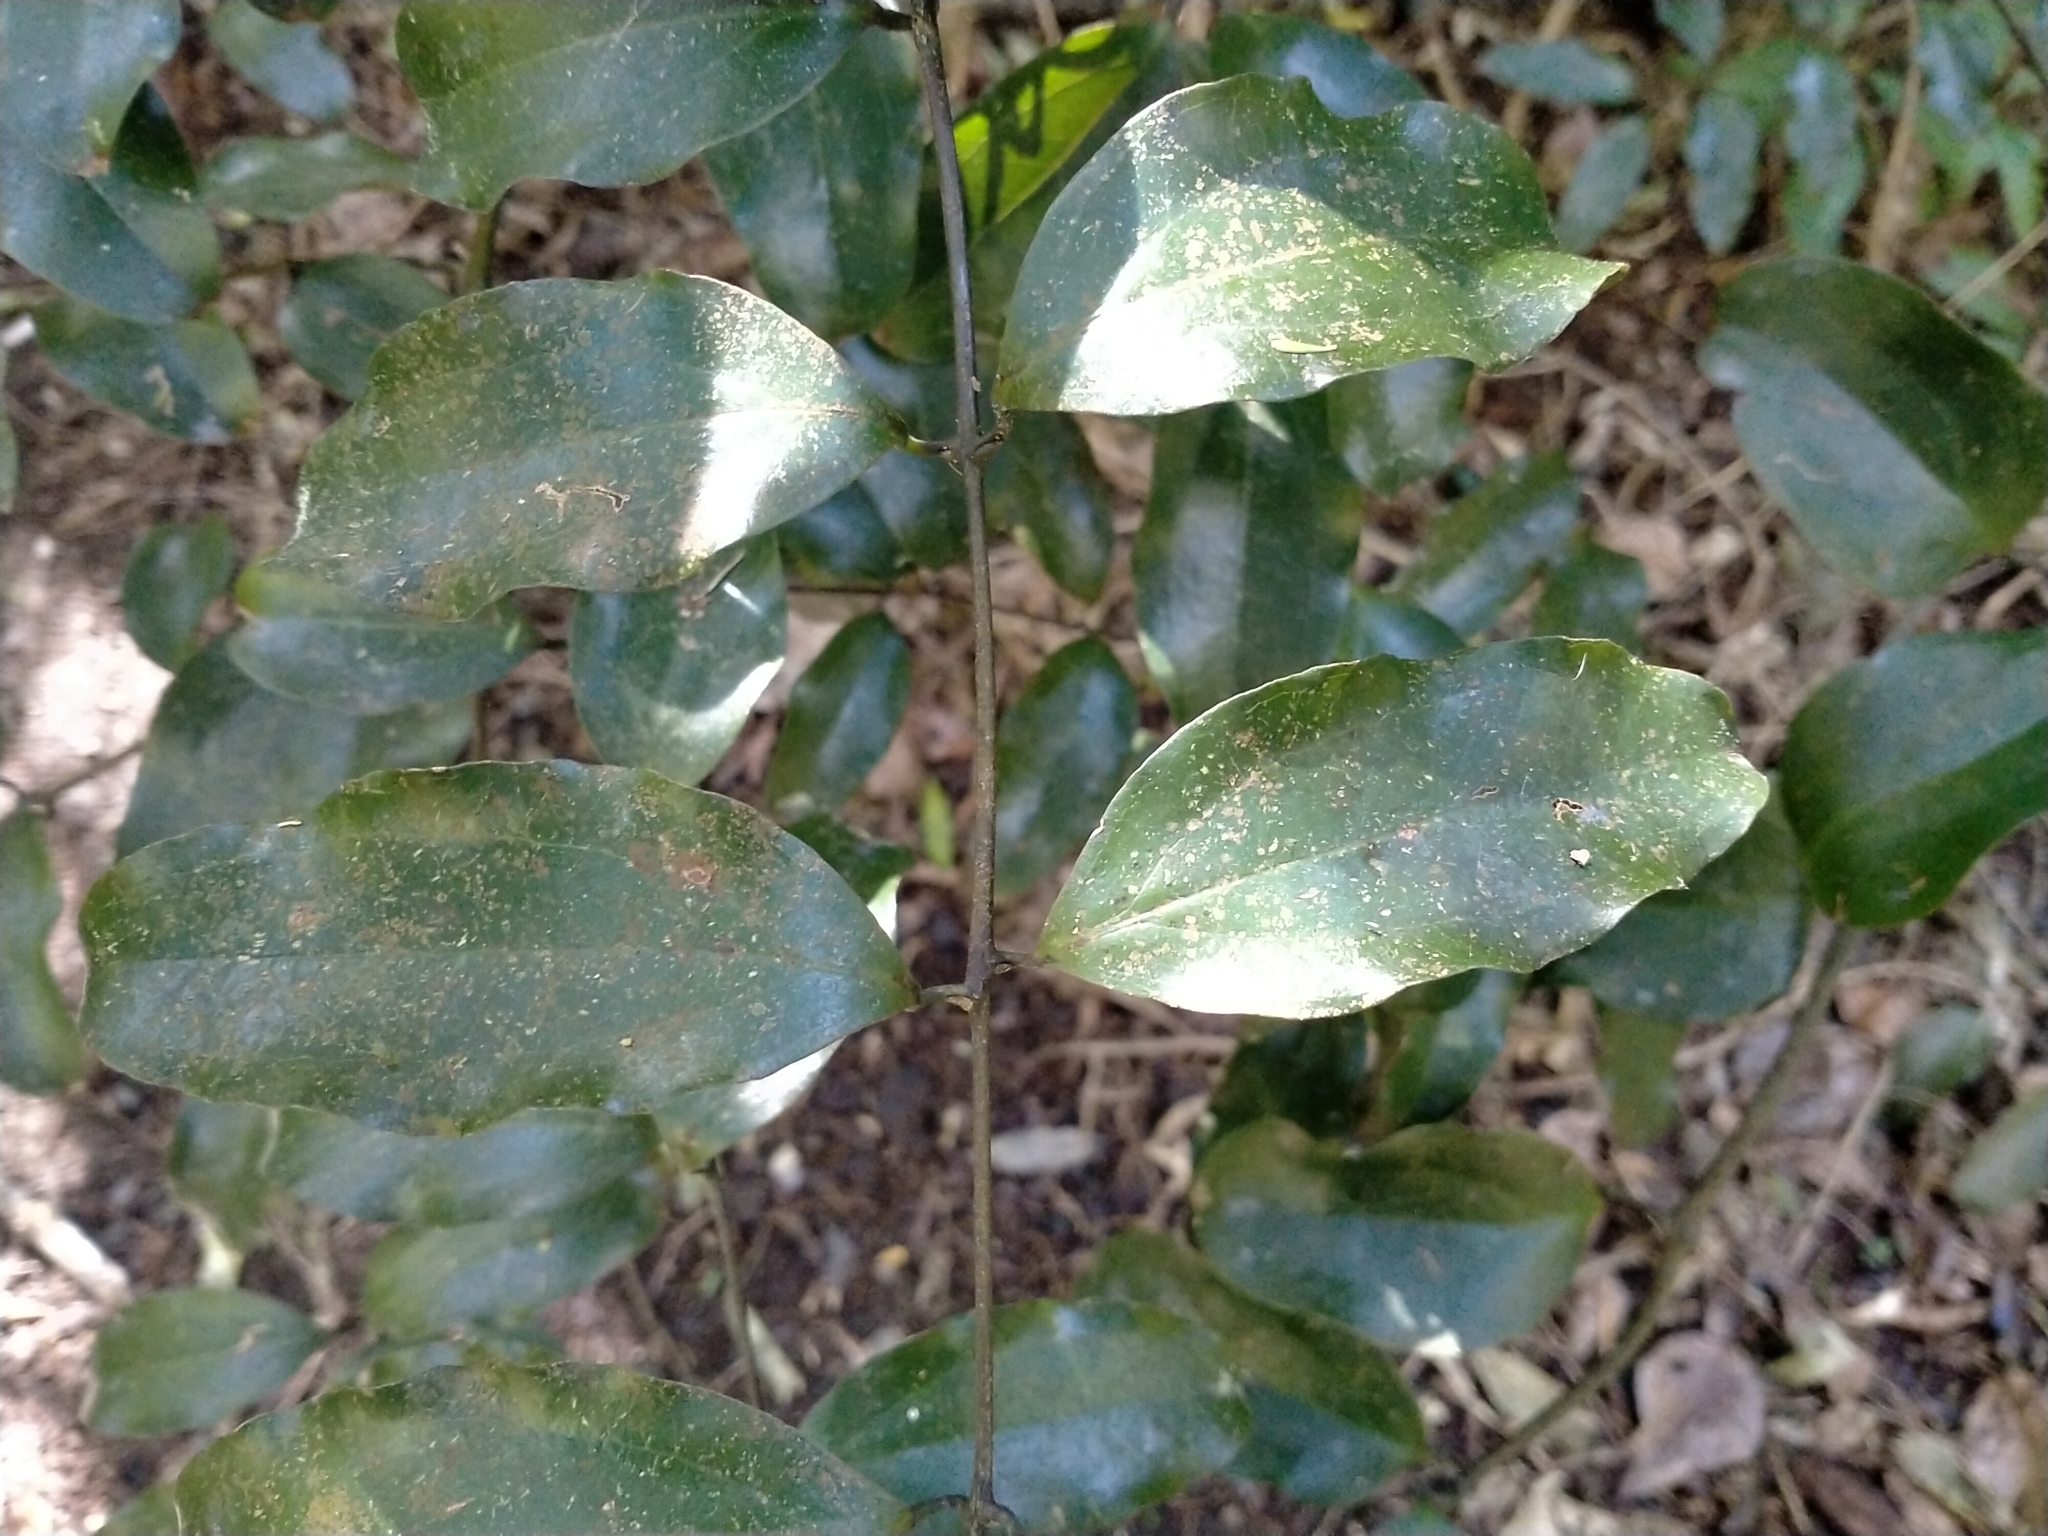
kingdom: Plantae
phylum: Tracheophyta
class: Liliopsida
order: Liliales
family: Ripogonaceae
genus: Ripogonum
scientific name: Ripogonum scandens
